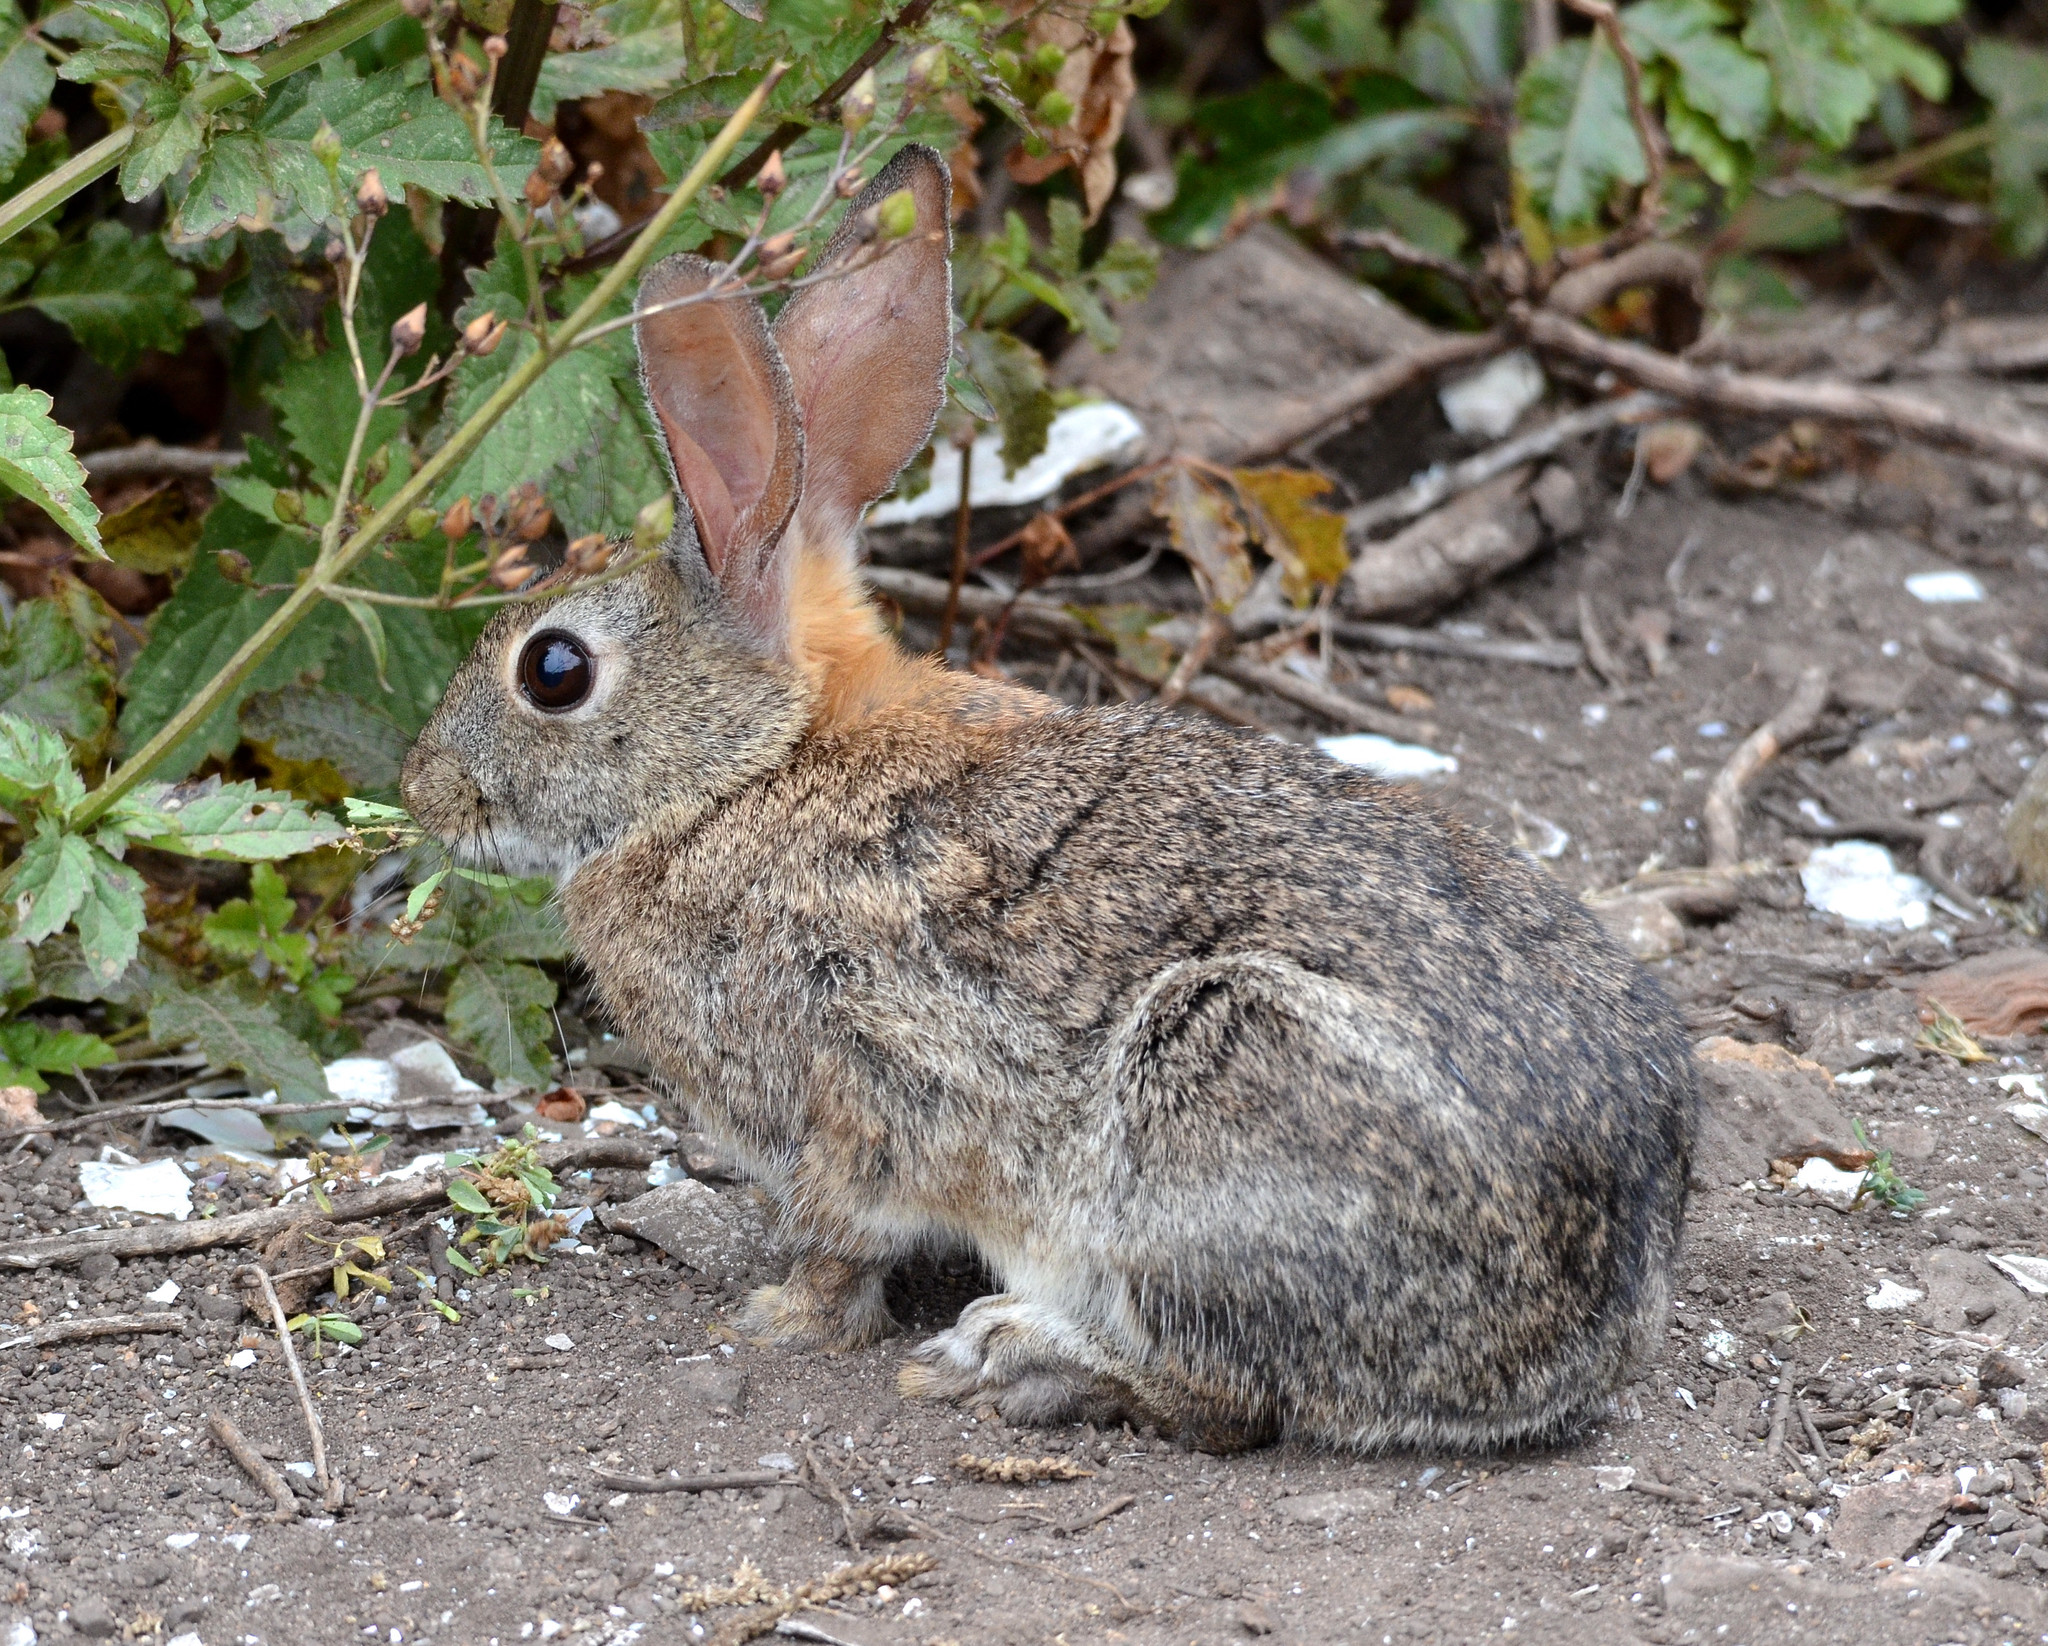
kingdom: Animalia
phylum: Chordata
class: Mammalia
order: Lagomorpha
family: Leporidae
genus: Sylvilagus
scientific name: Sylvilagus bachmani
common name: Brush rabbit
